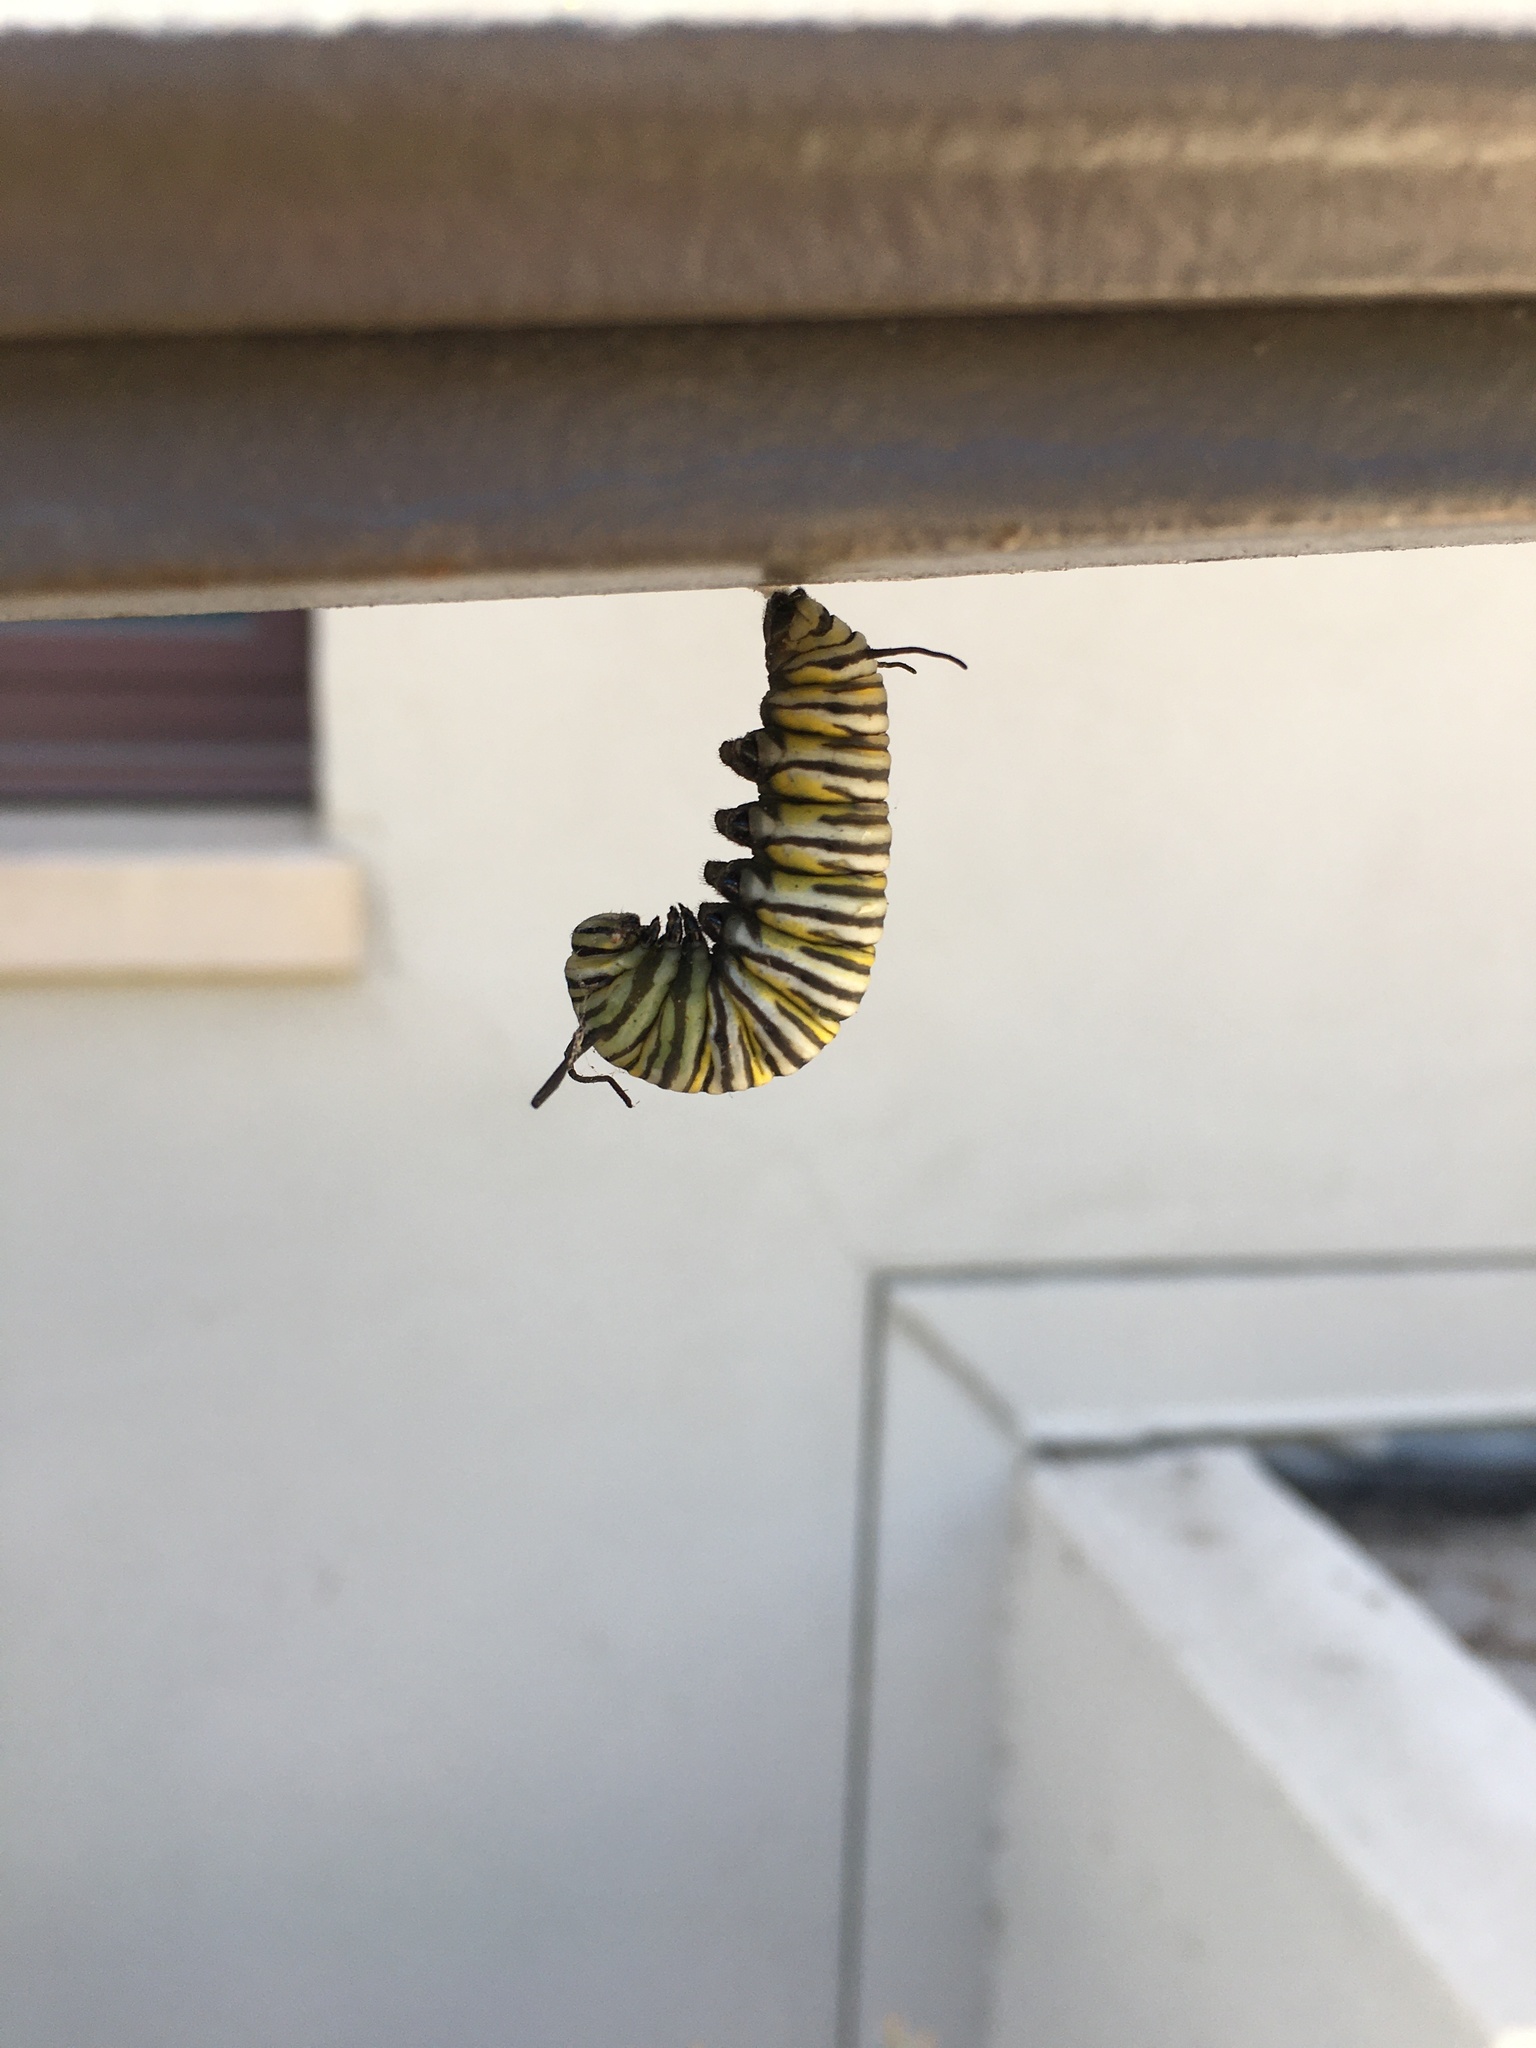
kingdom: Animalia
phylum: Arthropoda
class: Insecta
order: Lepidoptera
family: Nymphalidae
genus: Danaus
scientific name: Danaus plexippus
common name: Monarch
